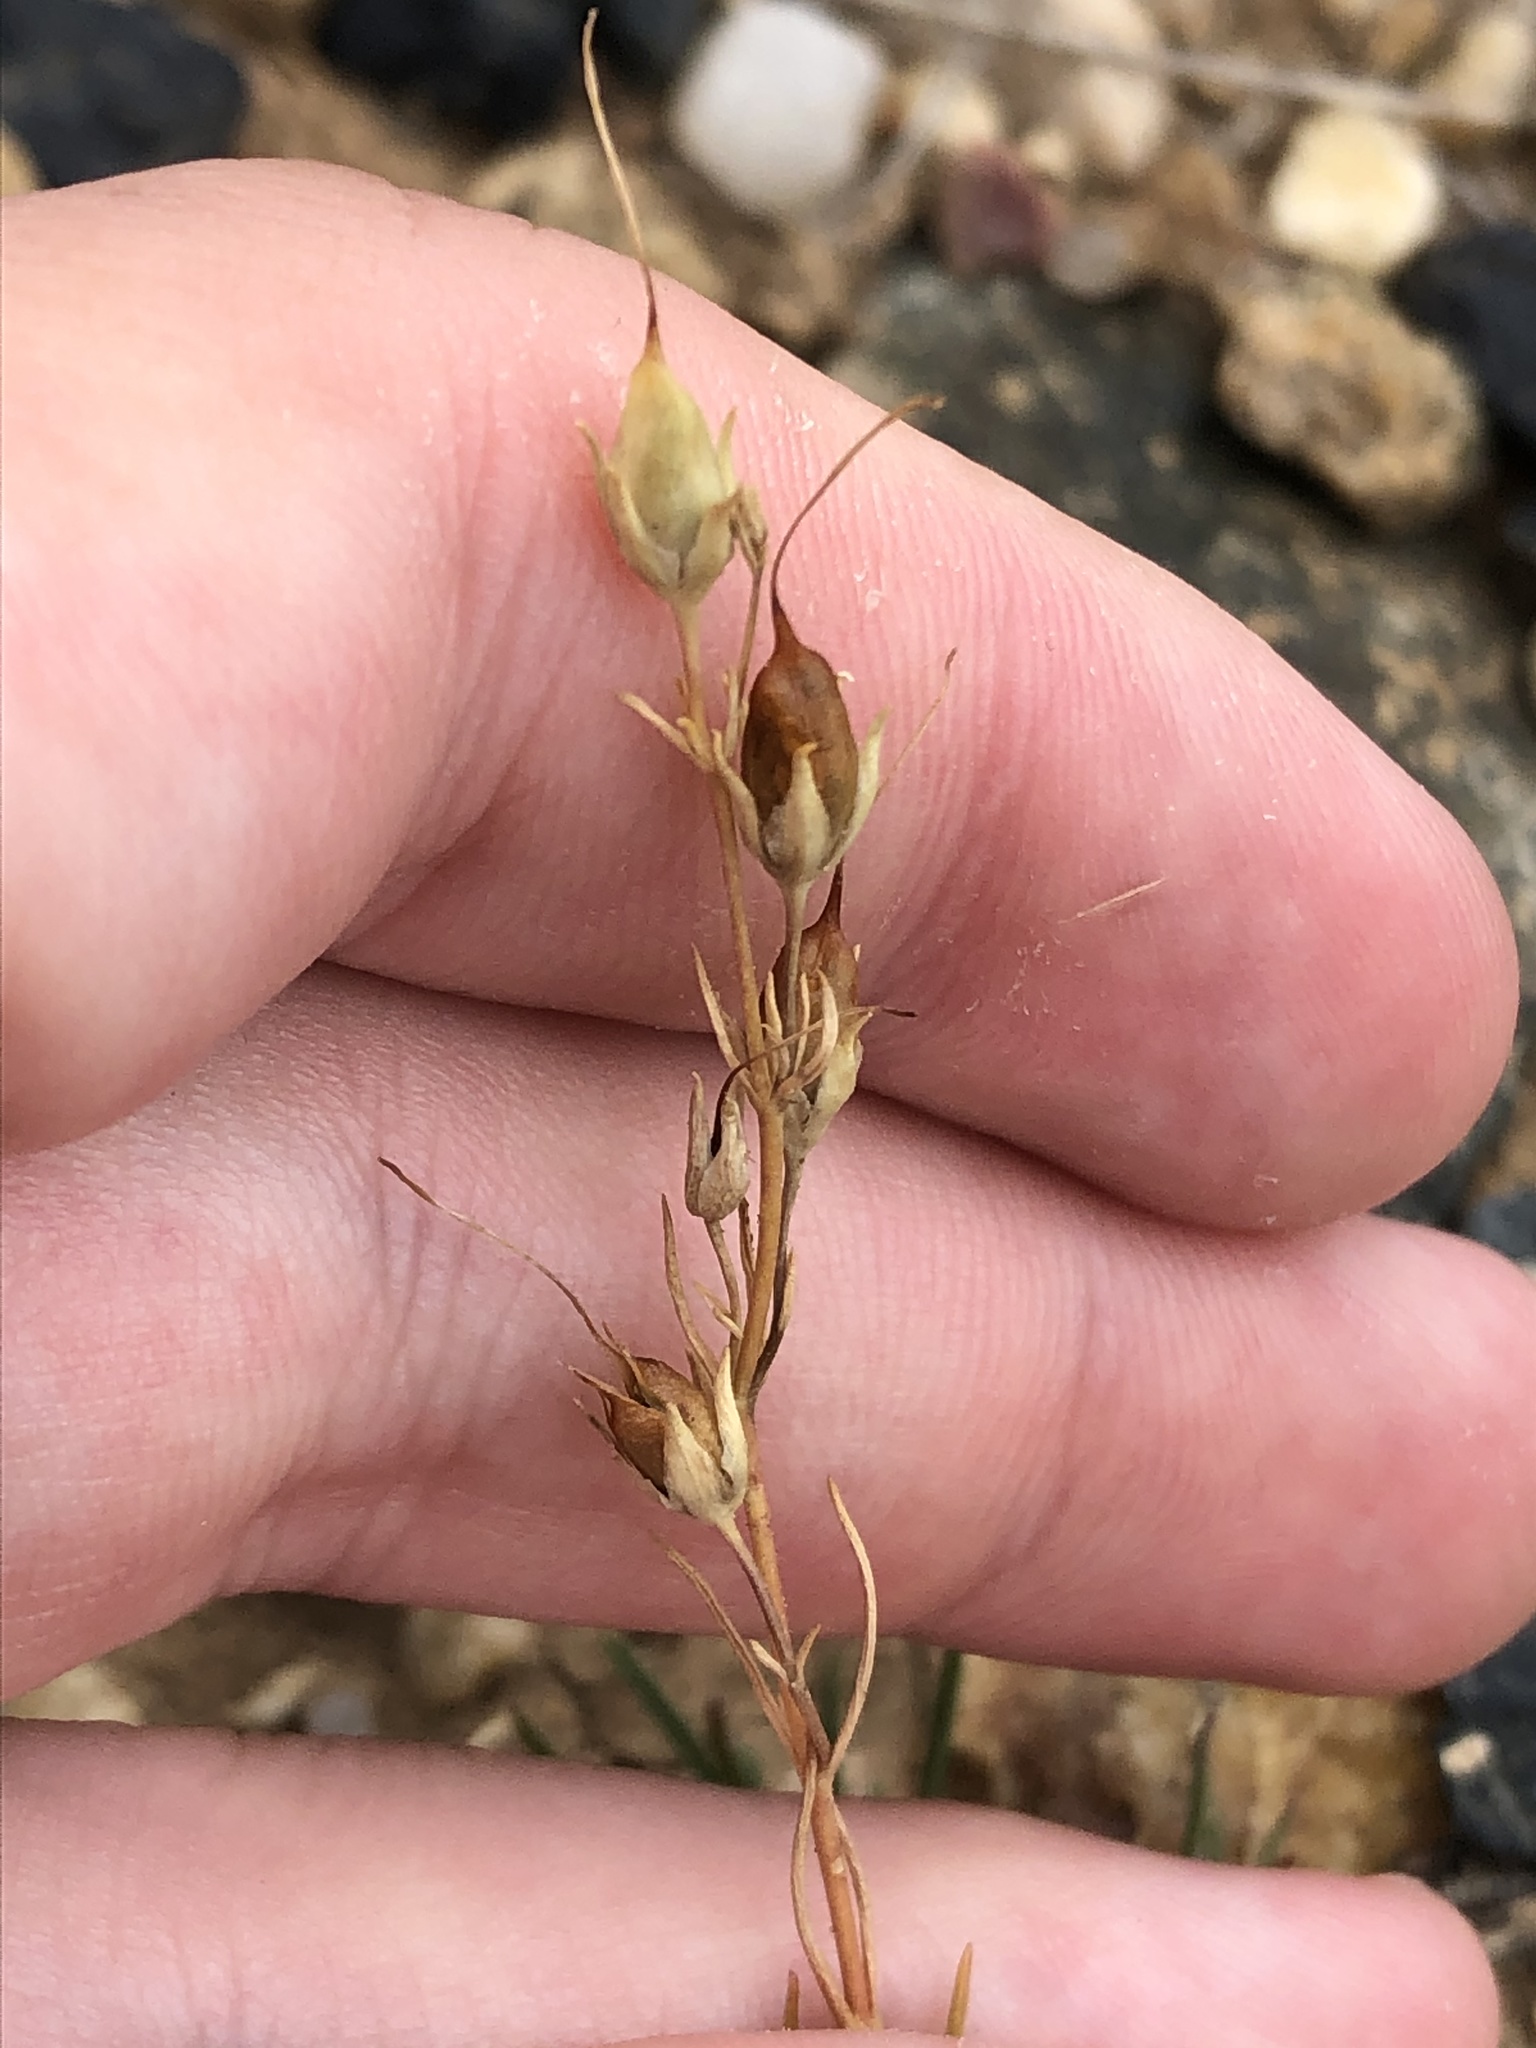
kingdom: Plantae
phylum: Tracheophyta
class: Magnoliopsida
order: Lamiales
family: Plantaginaceae
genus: Penstemon
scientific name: Penstemon laricifolius
